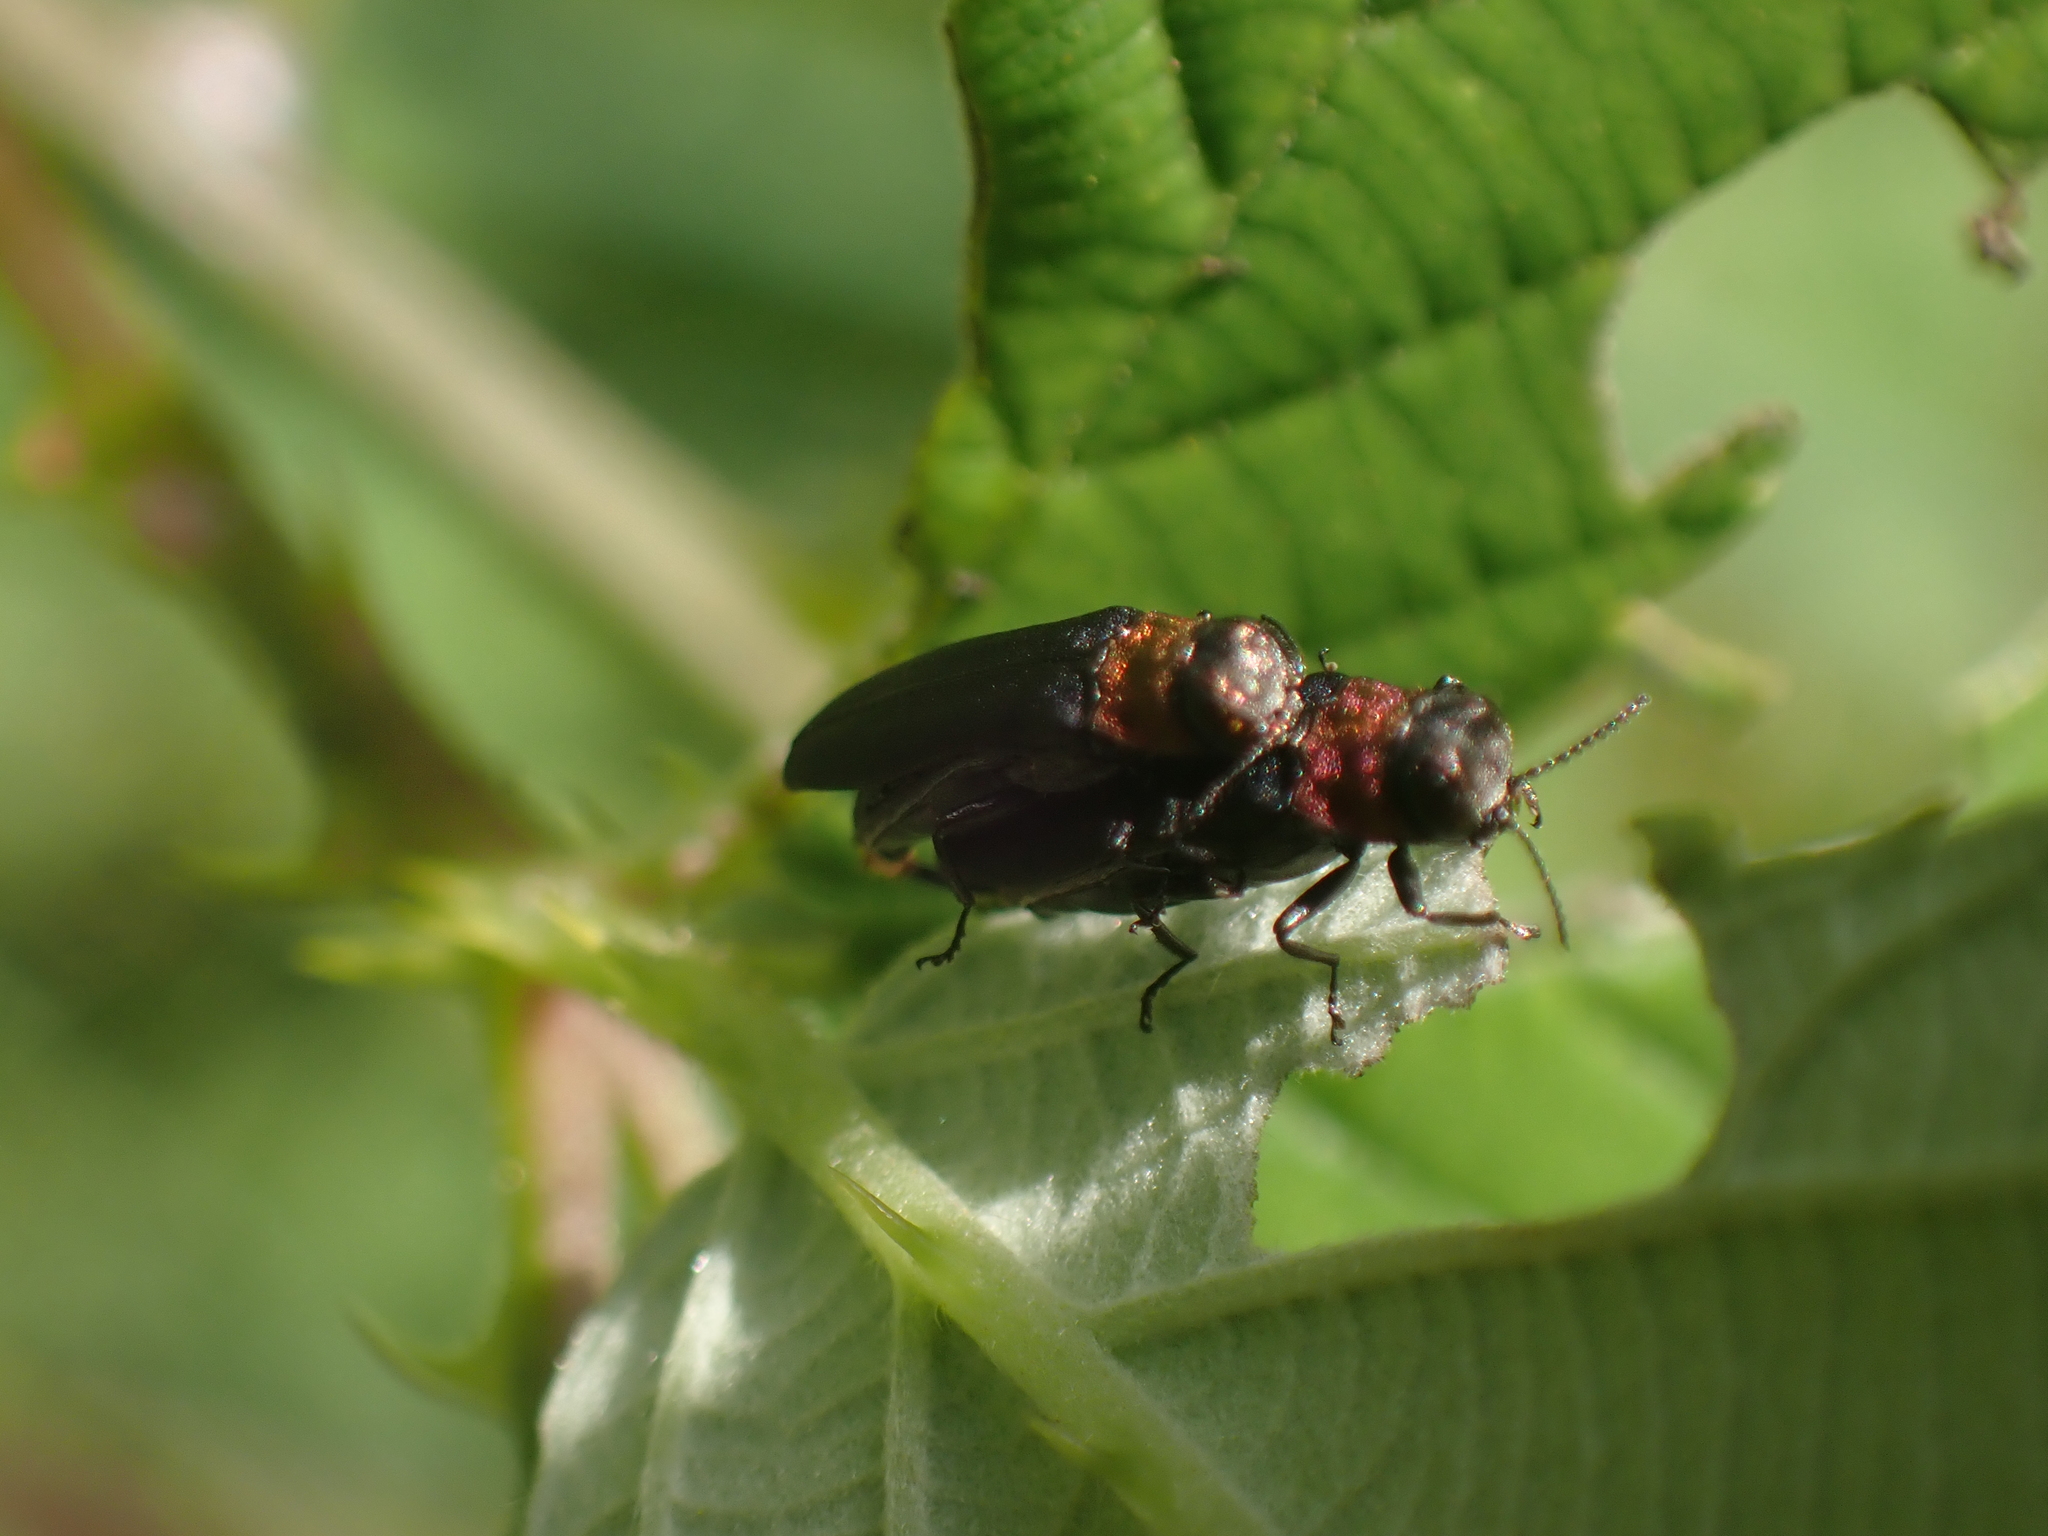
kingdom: Animalia
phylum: Arthropoda
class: Insecta
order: Coleoptera
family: Buprestidae
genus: Agrilus
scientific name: Agrilus ruficollis
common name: Red-necked cane borer beetle
